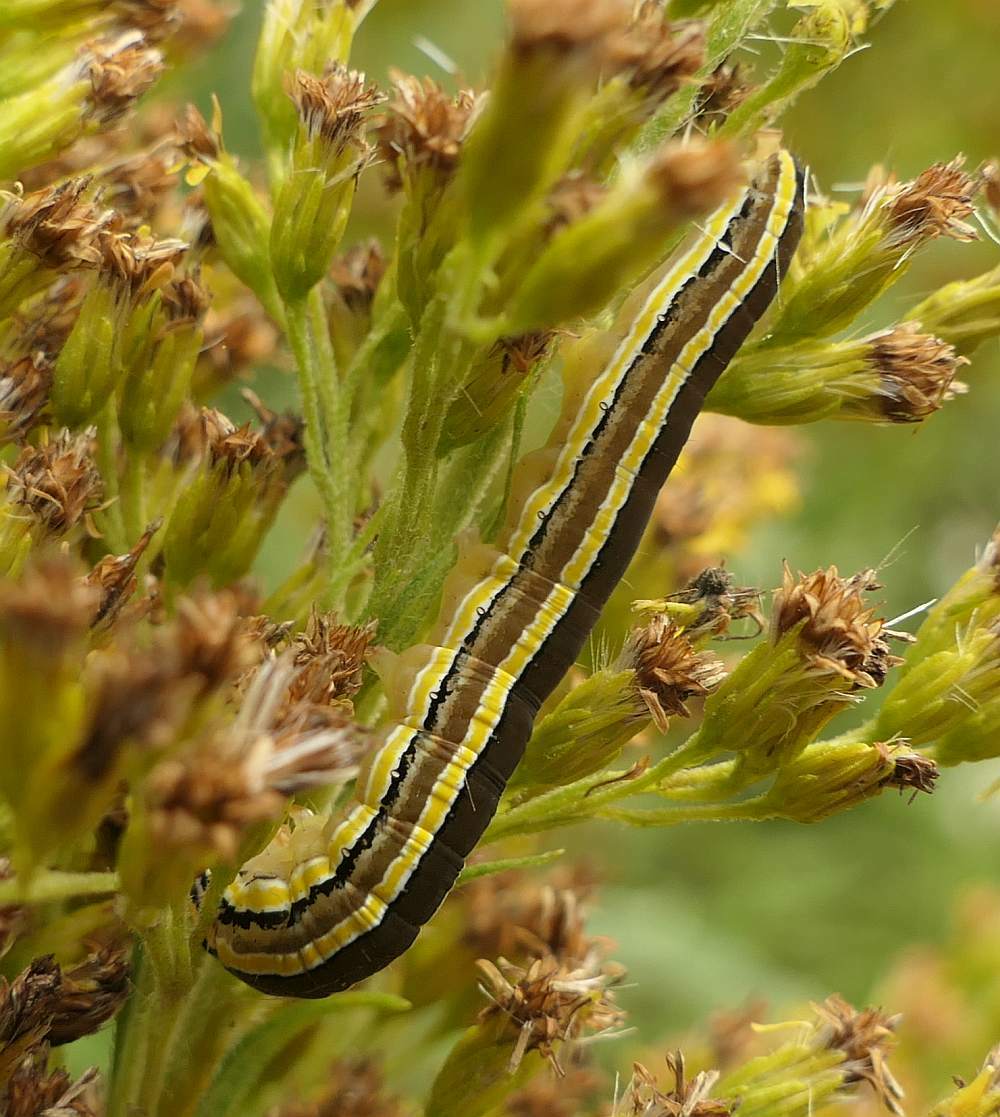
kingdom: Animalia
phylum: Arthropoda
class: Insecta
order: Lepidoptera
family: Noctuidae
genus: Trichordestra
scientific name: Trichordestra legitima
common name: Striped garden caterpillar
